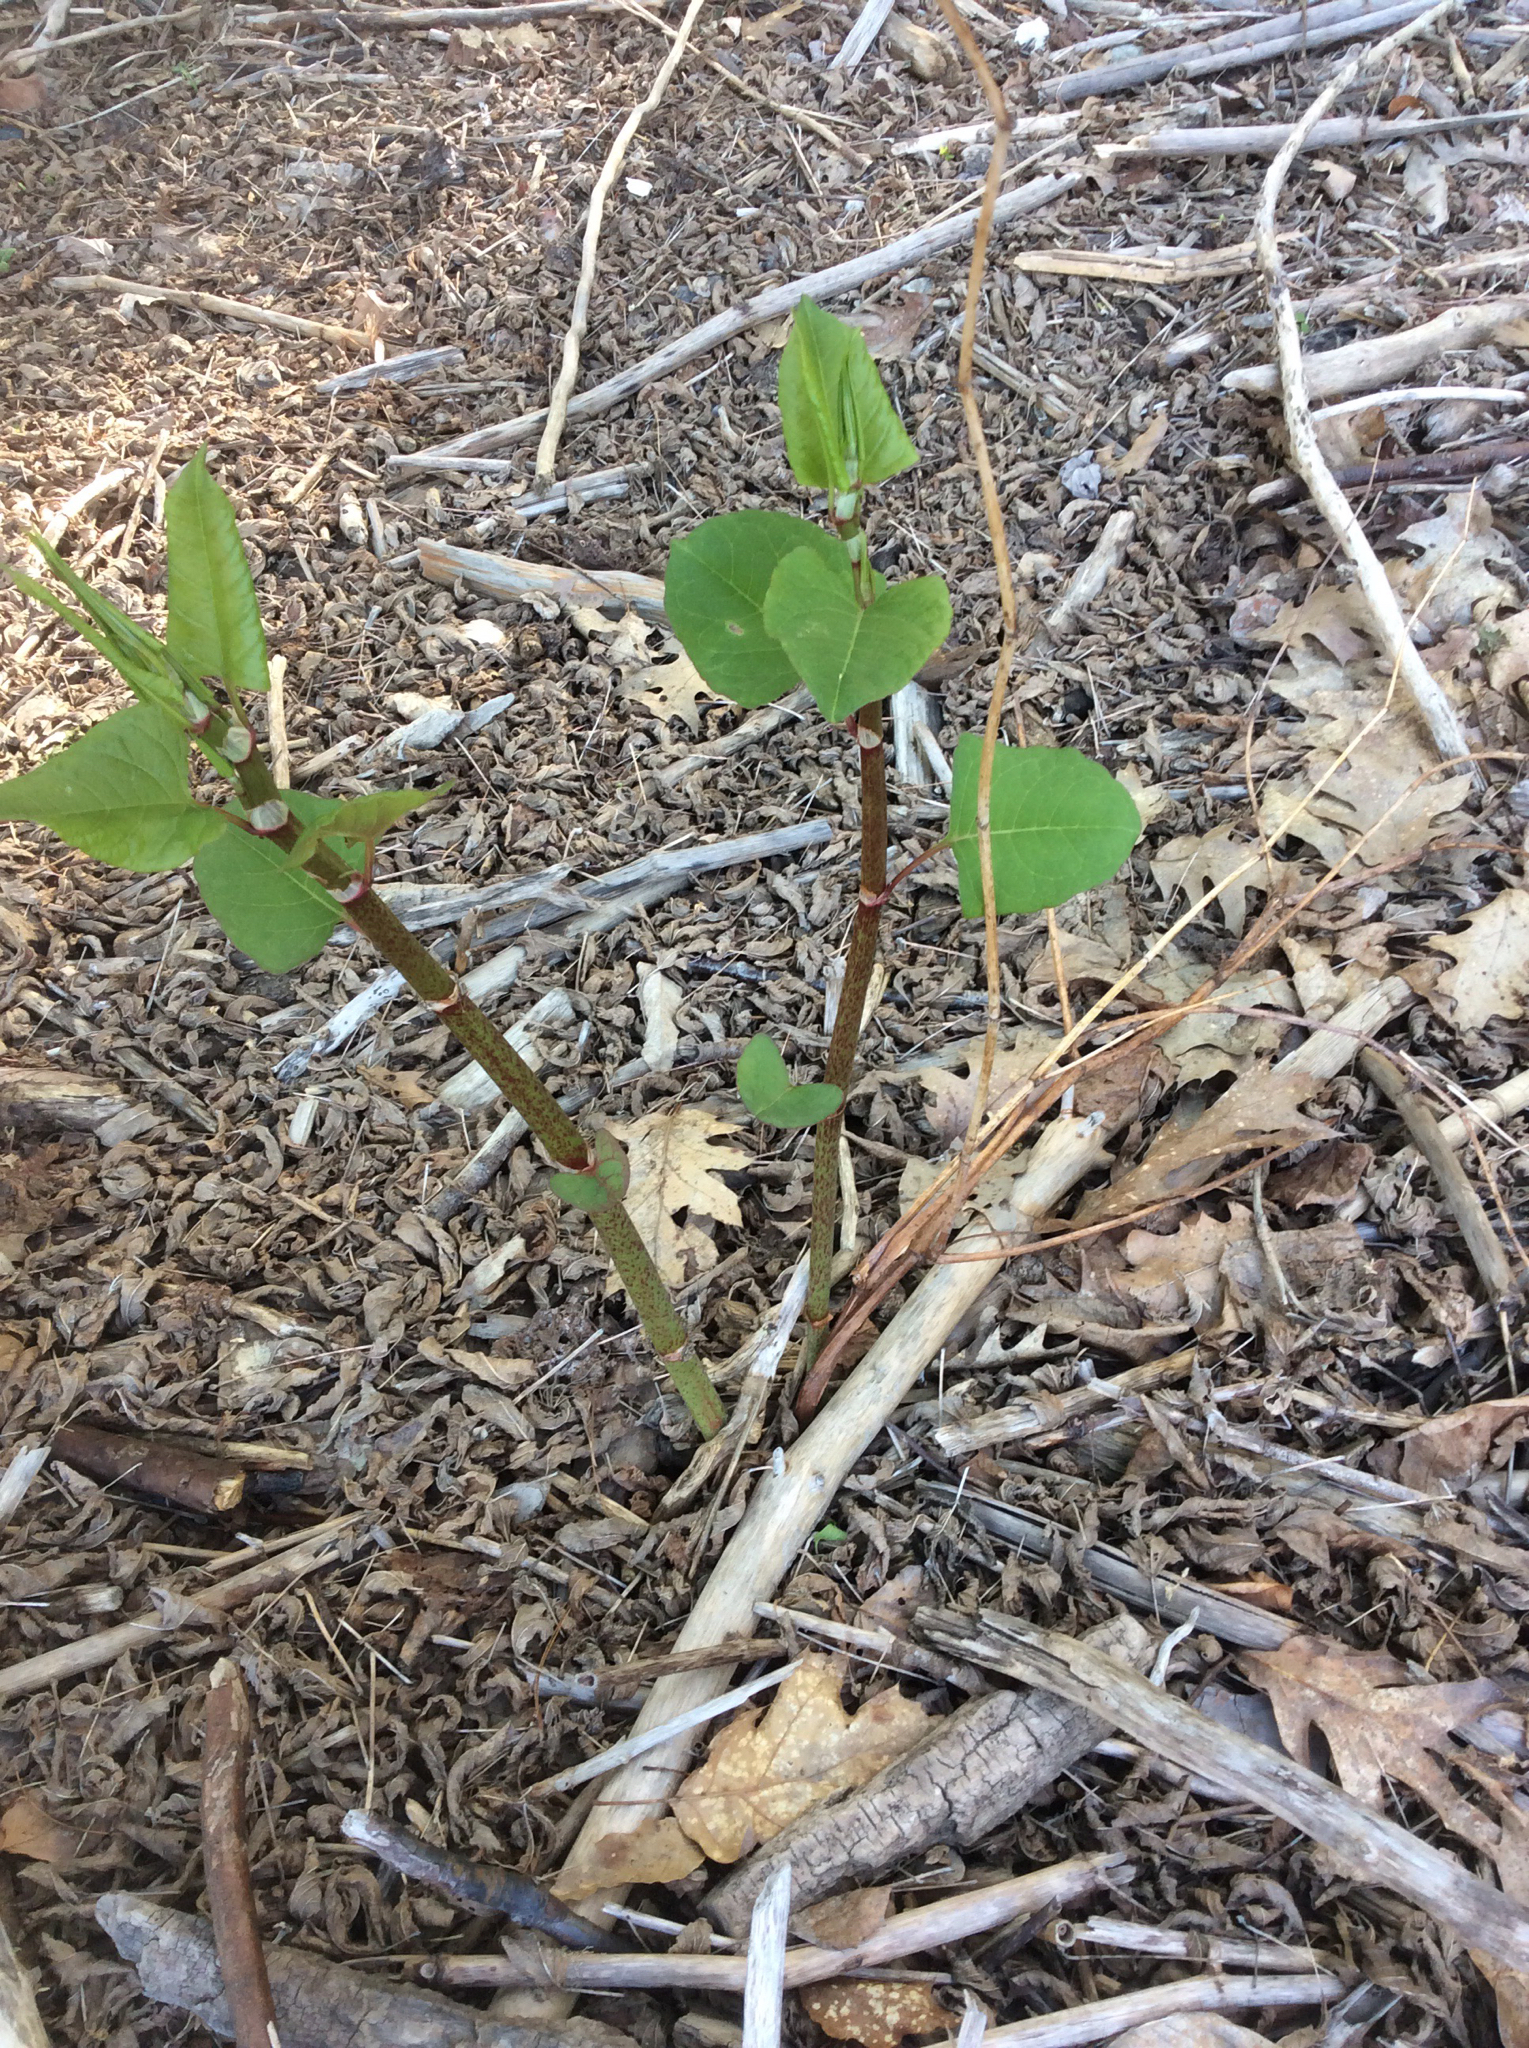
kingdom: Plantae
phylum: Tracheophyta
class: Magnoliopsida
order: Caryophyllales
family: Polygonaceae
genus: Reynoutria
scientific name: Reynoutria japonica
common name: Japanese knotweed
